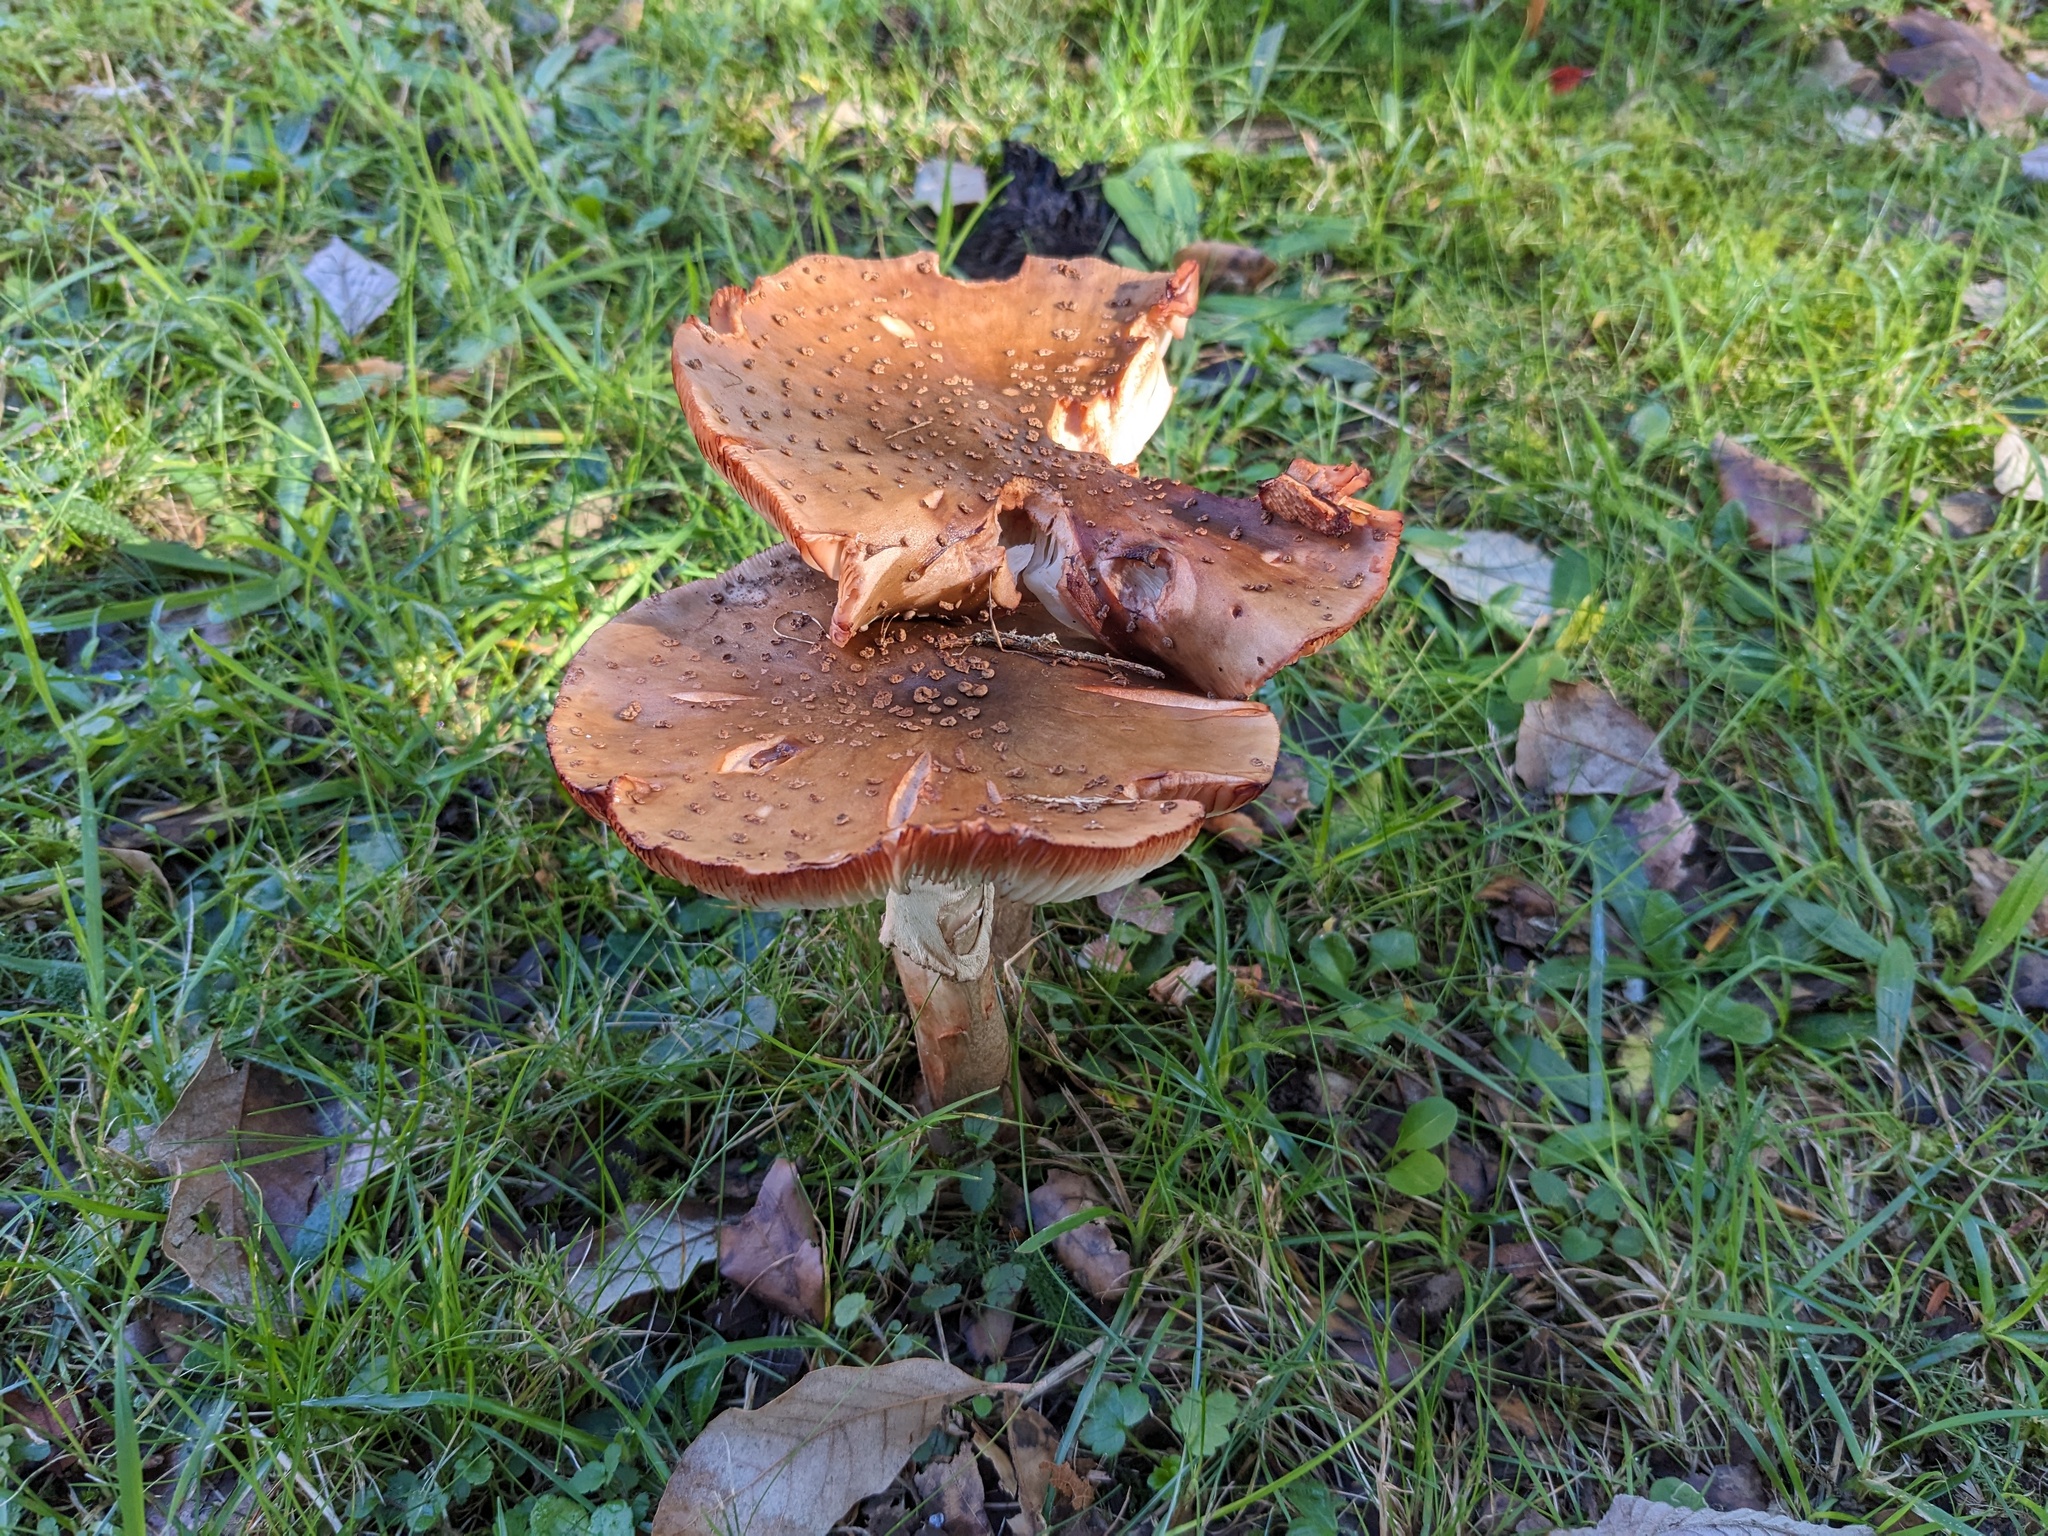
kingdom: Fungi
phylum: Basidiomycota
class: Agaricomycetes
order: Agaricales
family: Amanitaceae
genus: Amanita
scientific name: Amanita rubescens
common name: Blusher
